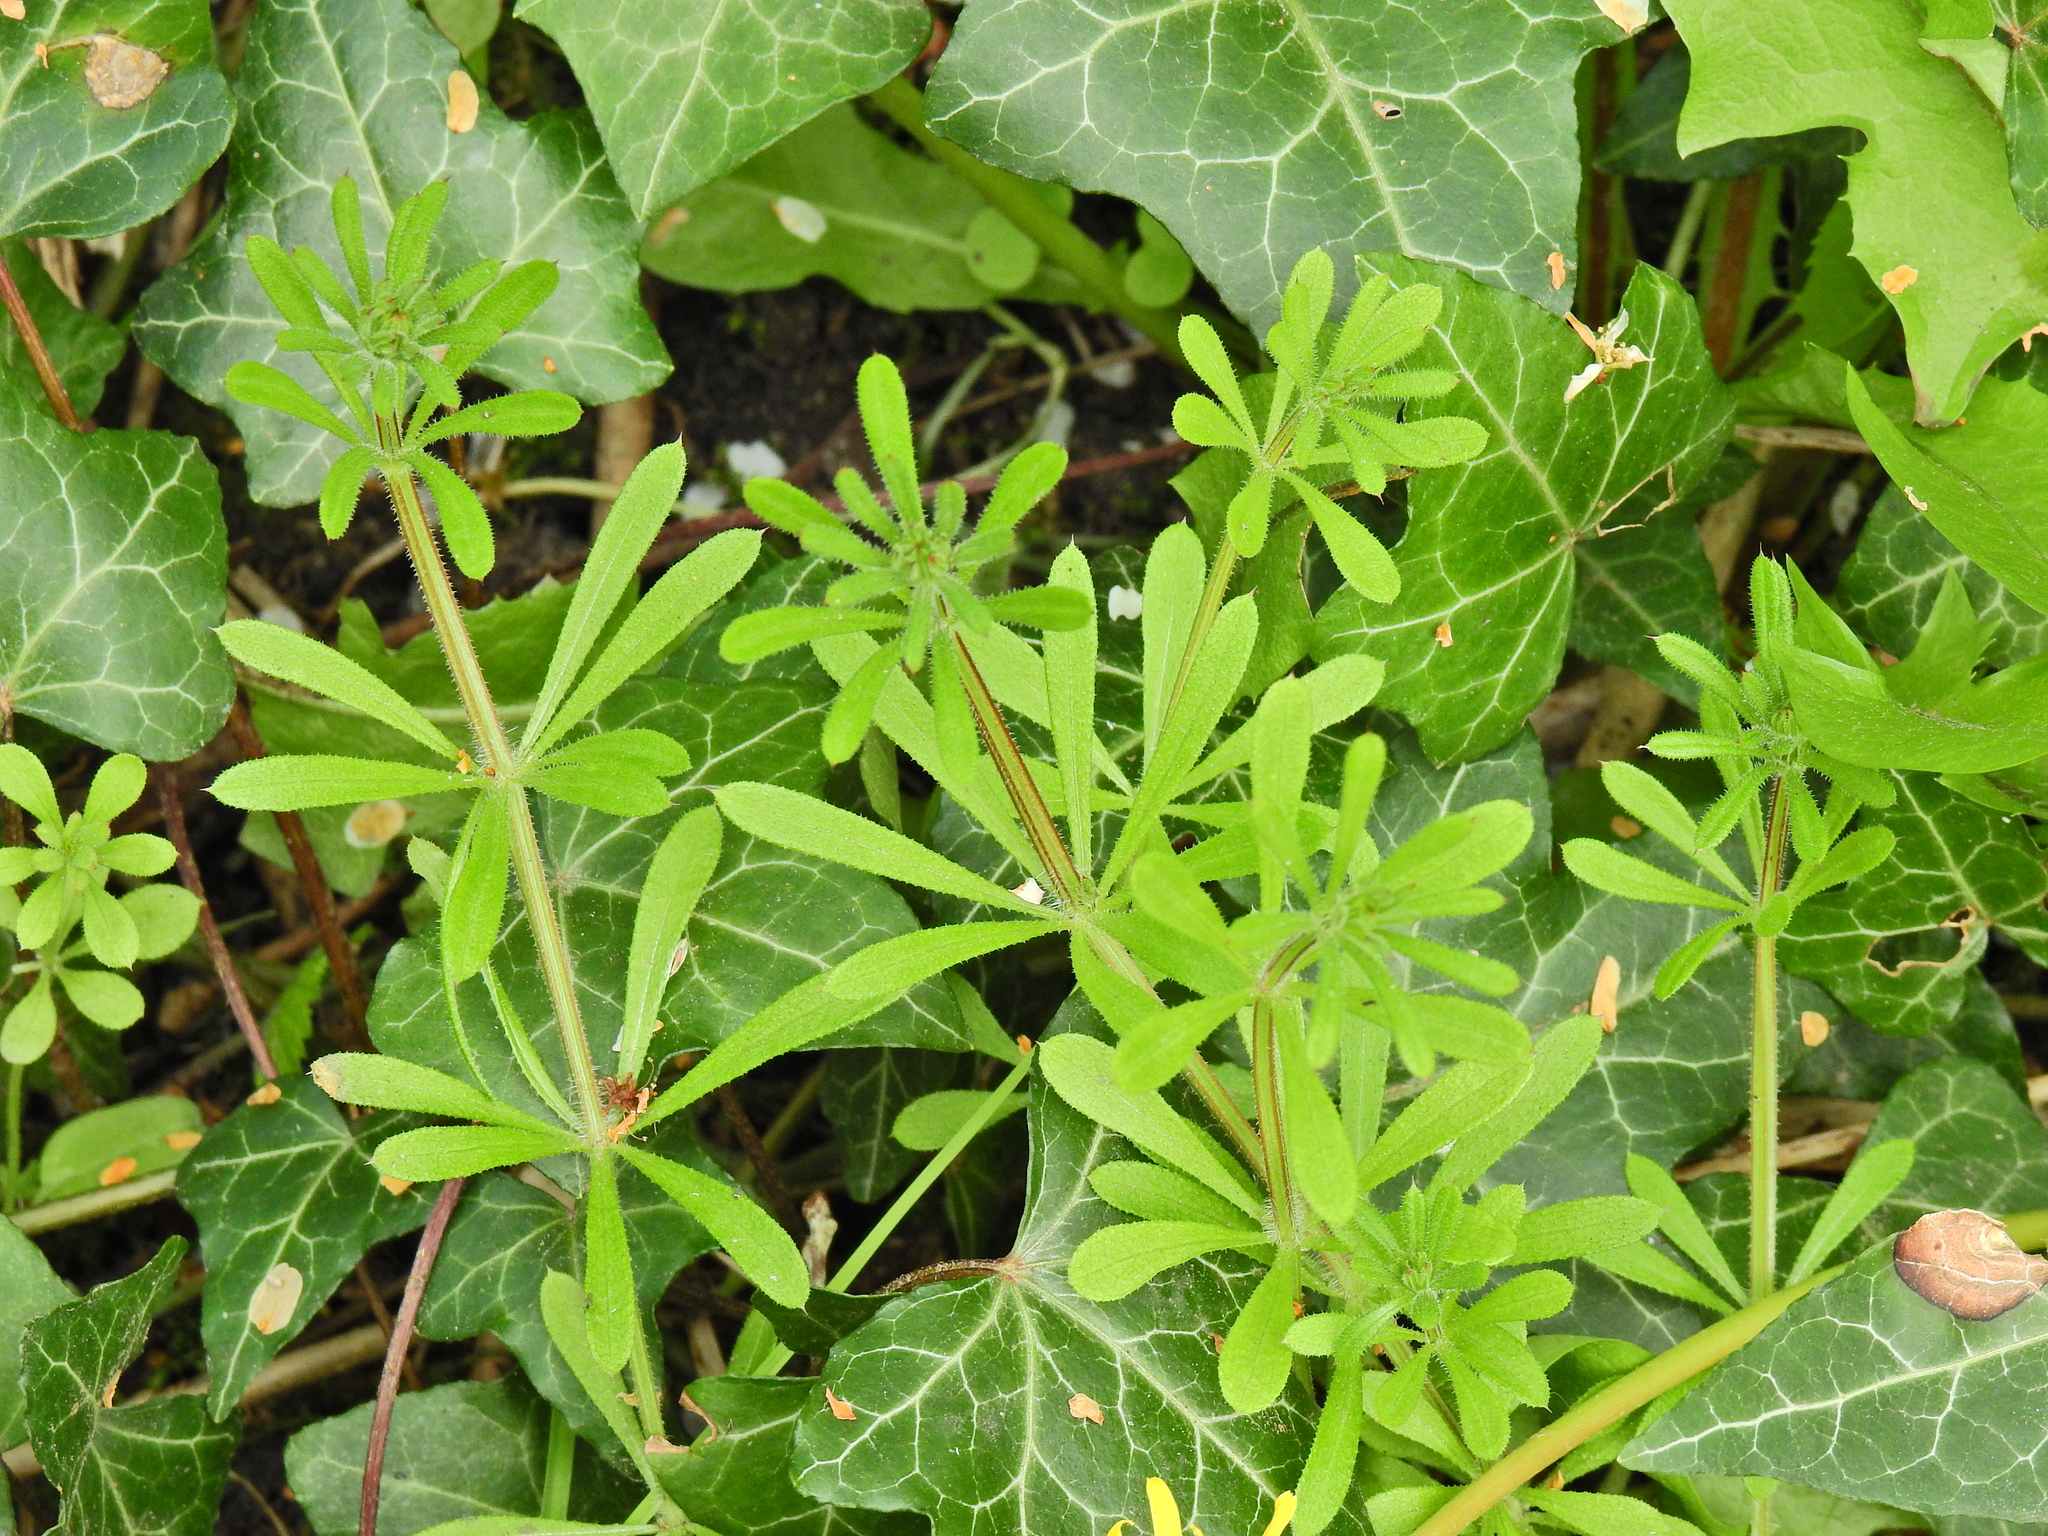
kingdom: Plantae
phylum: Tracheophyta
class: Magnoliopsida
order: Gentianales
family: Rubiaceae
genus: Galium
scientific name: Galium aparine
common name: Cleavers
